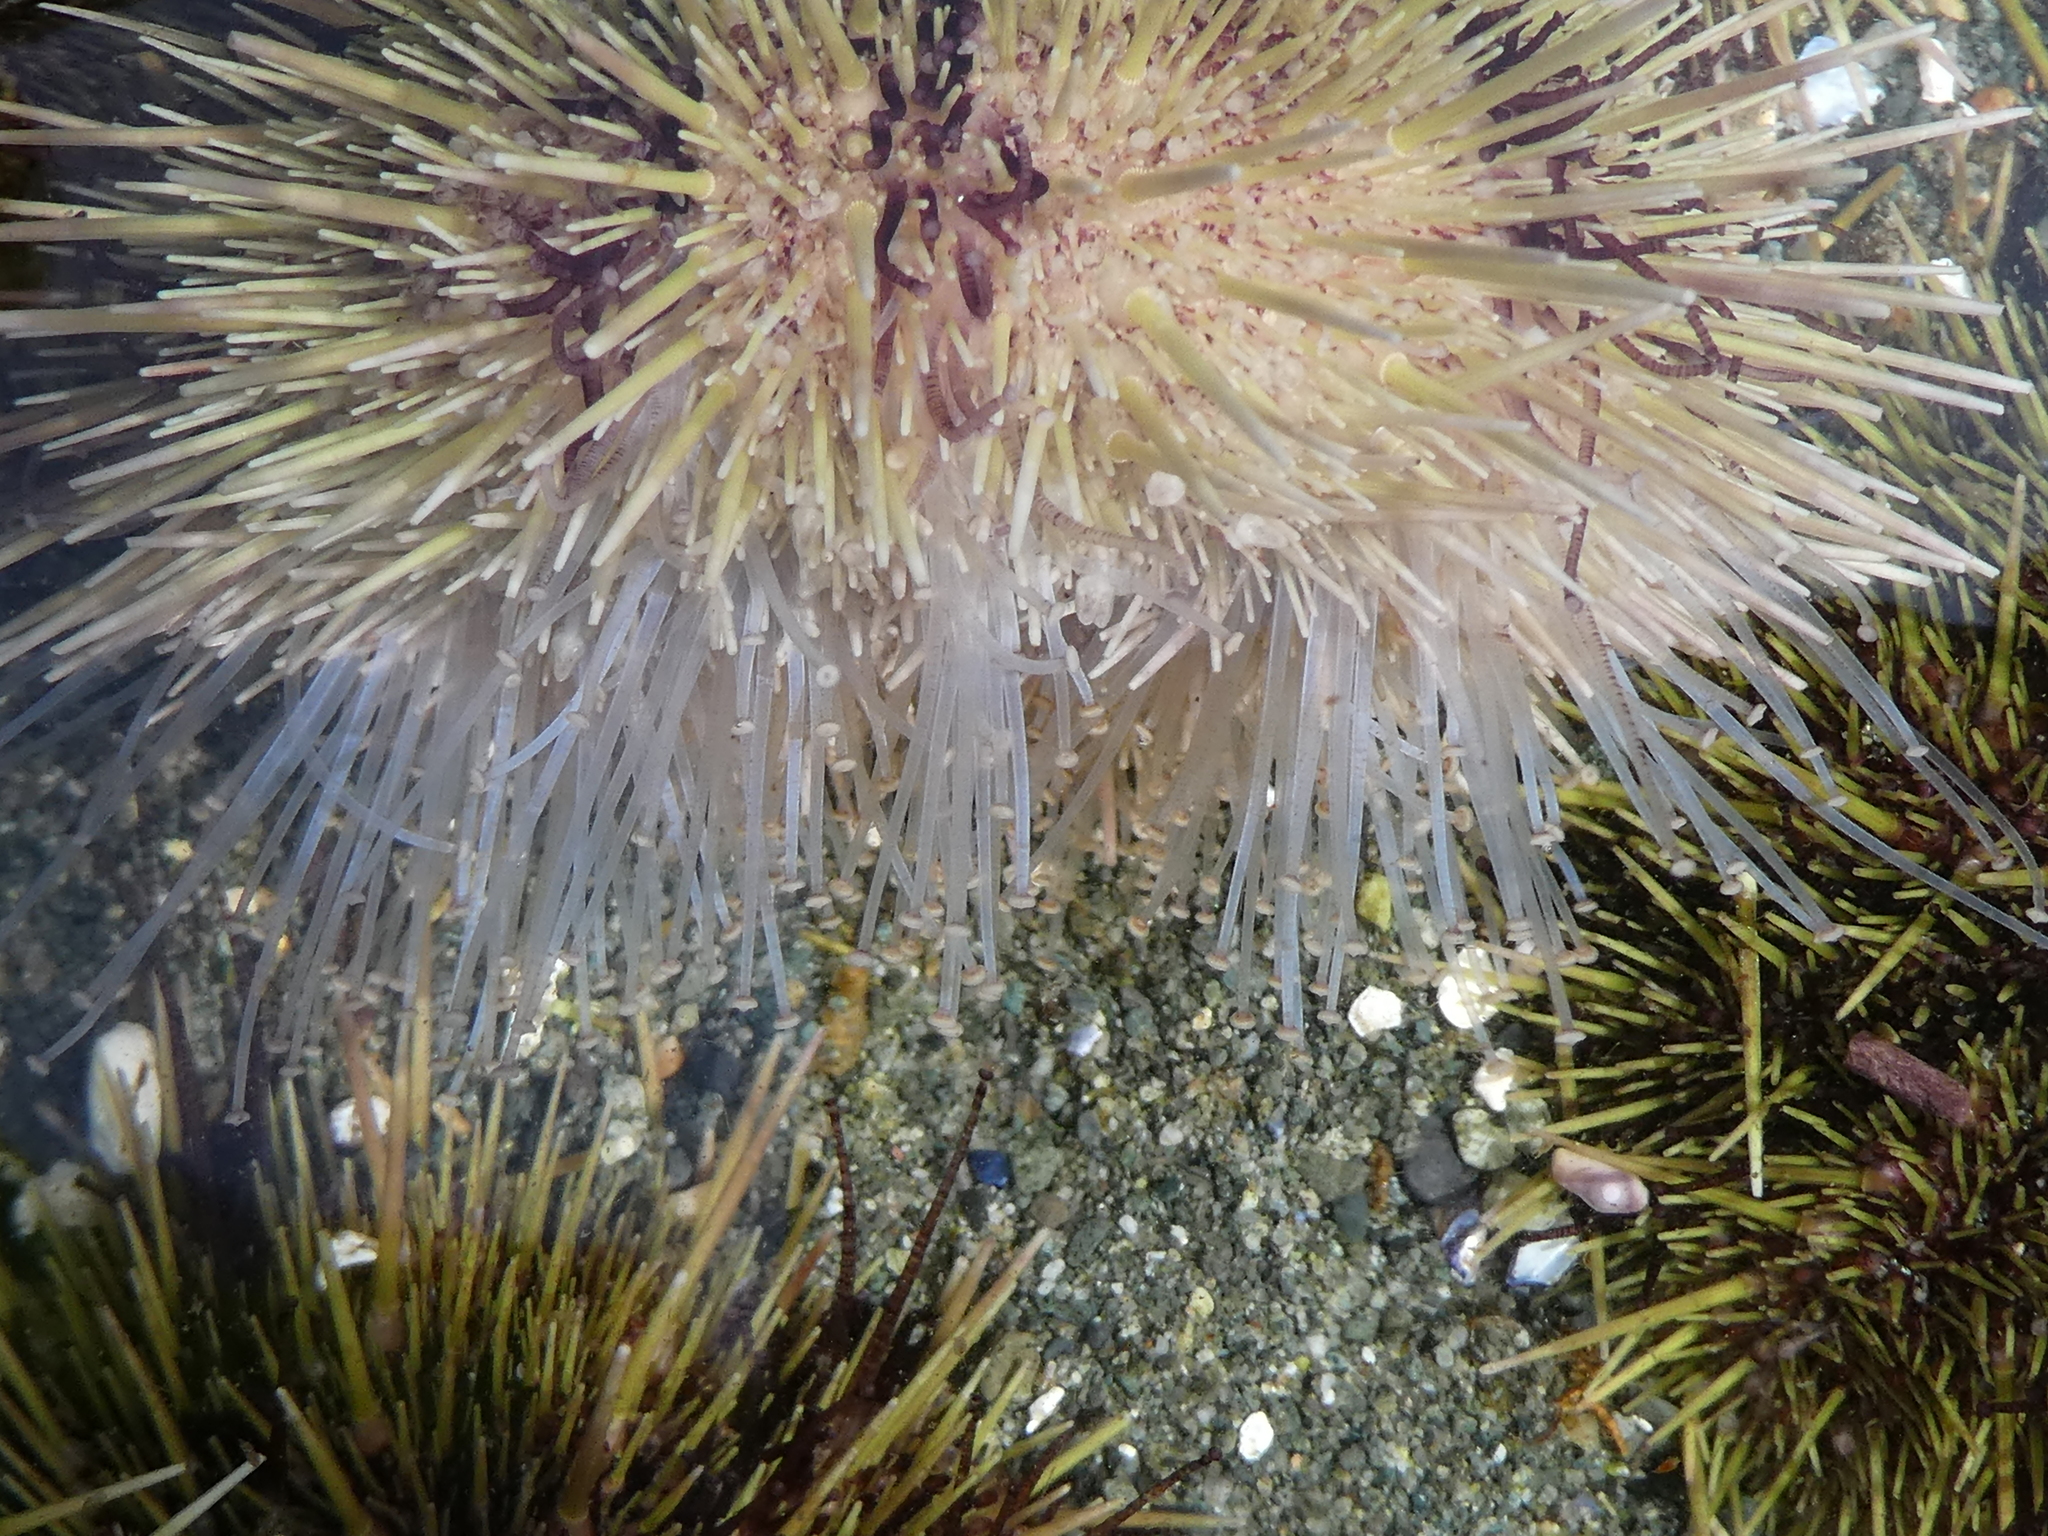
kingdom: Animalia
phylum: Echinodermata
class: Echinoidea
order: Camarodonta
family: Strongylocentrotidae
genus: Strongylocentrotus
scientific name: Strongylocentrotus droebachiensis
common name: Northern sea urchin
